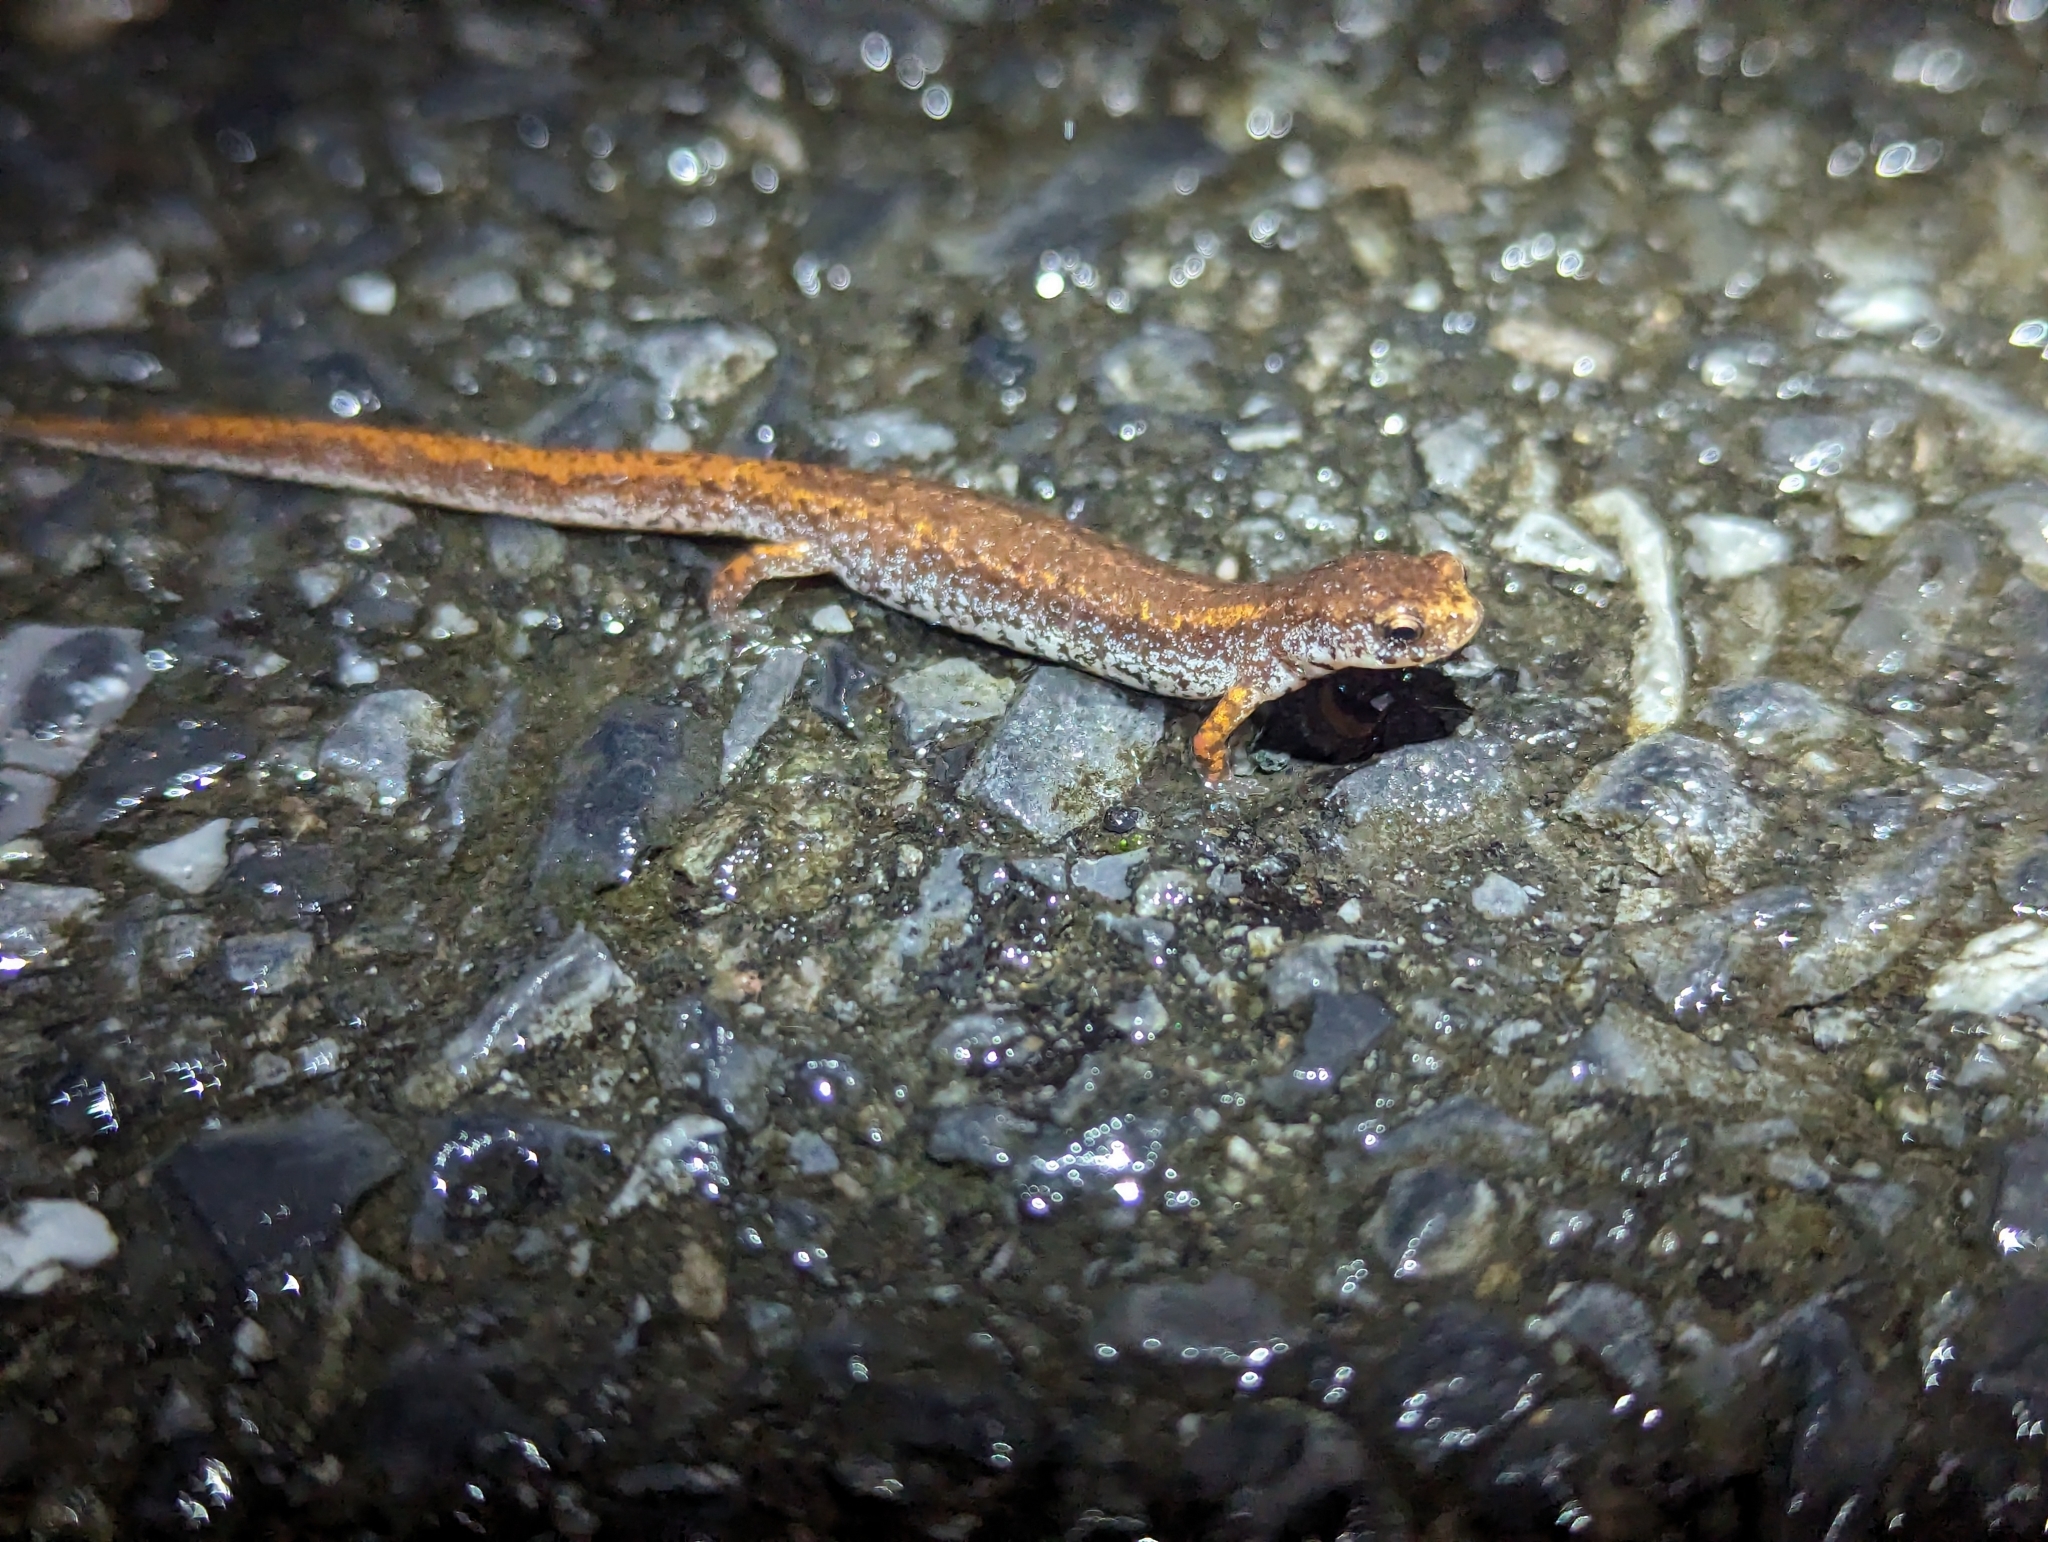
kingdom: Animalia
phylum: Chordata
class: Amphibia
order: Caudata
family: Plethodontidae
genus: Hemidactylium
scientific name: Hemidactylium scutatum
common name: Four-toed salamander
